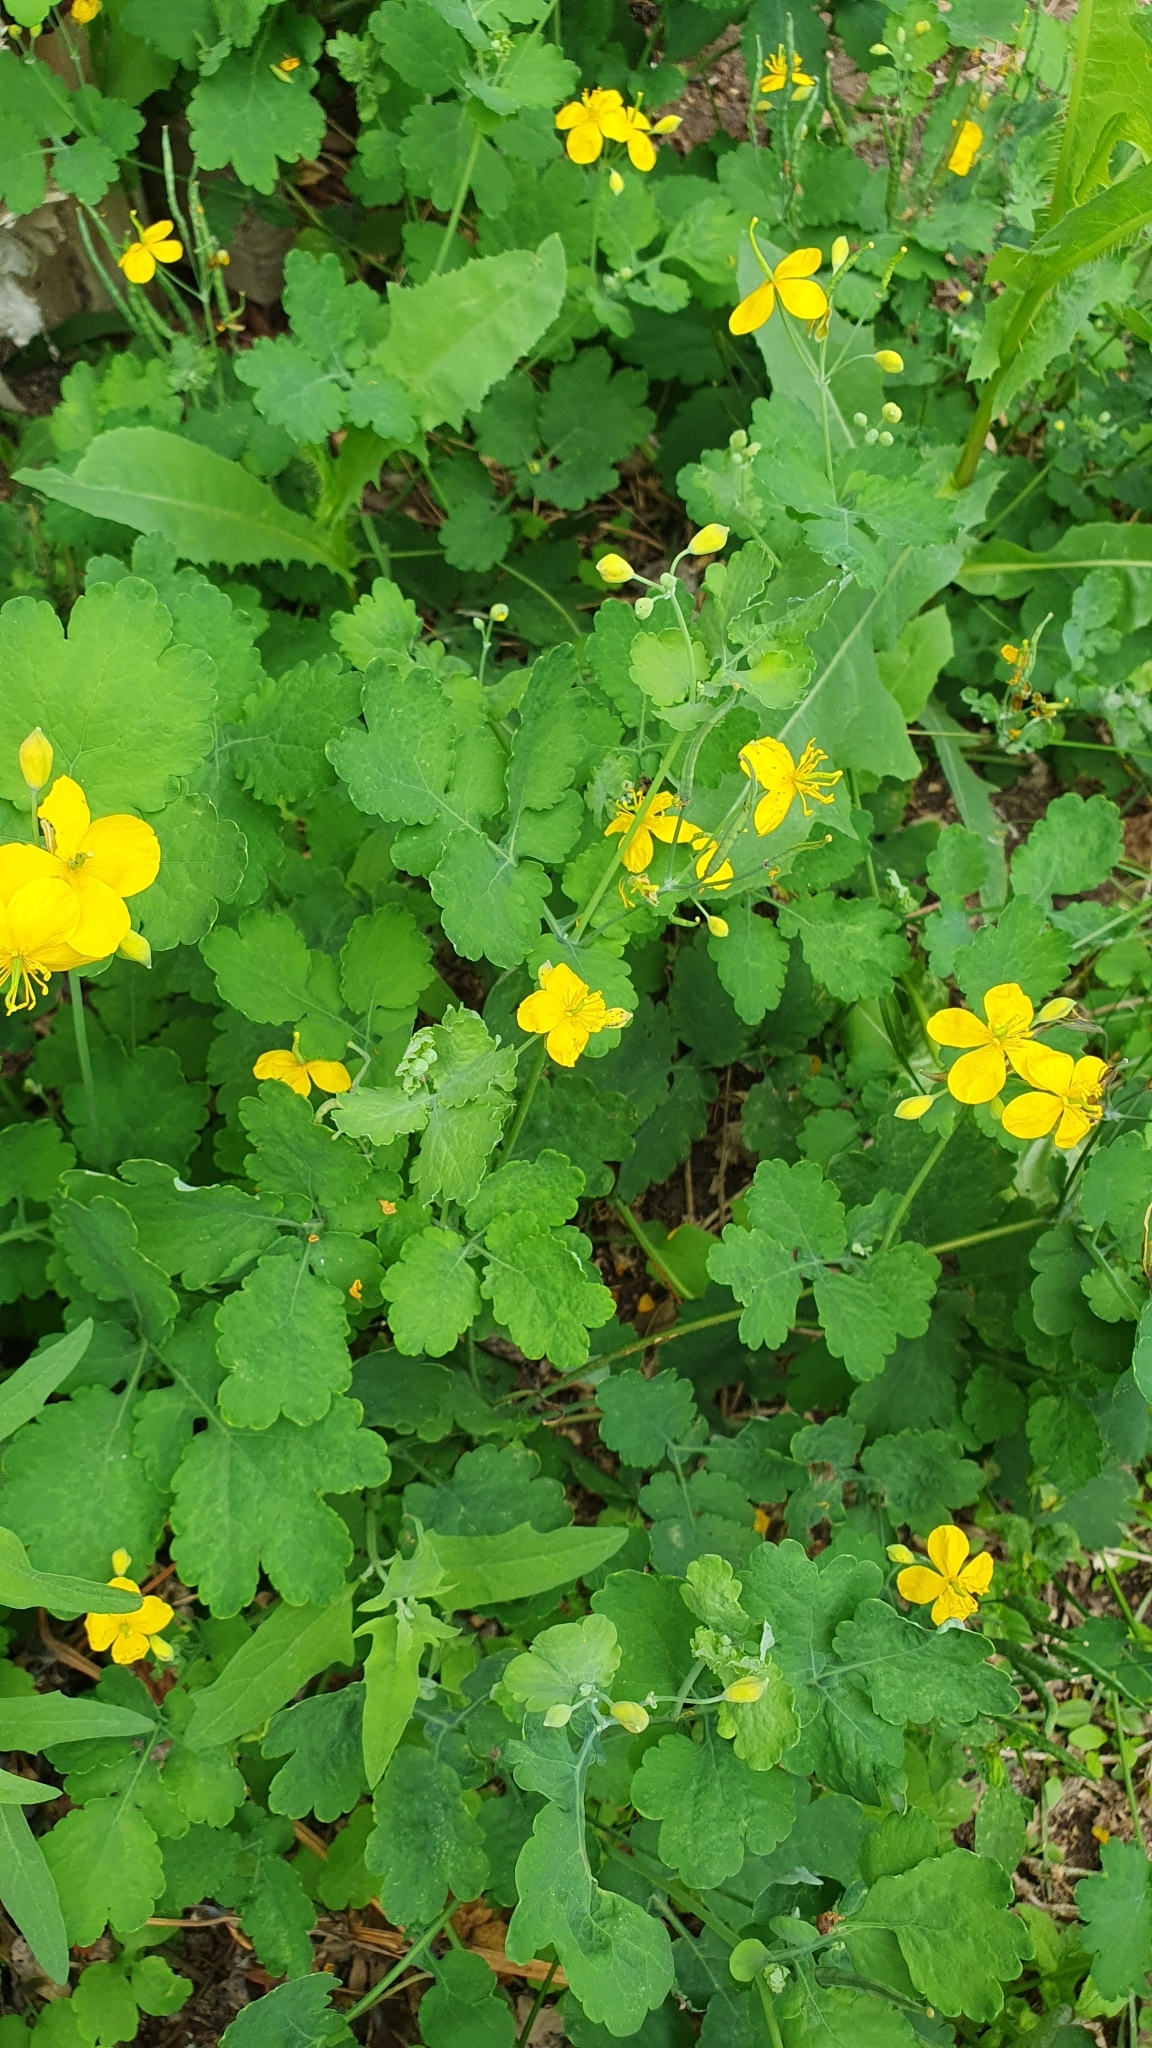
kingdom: Plantae
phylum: Tracheophyta
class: Magnoliopsida
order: Ranunculales
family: Papaveraceae
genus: Chelidonium
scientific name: Chelidonium majus
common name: Greater celandine
